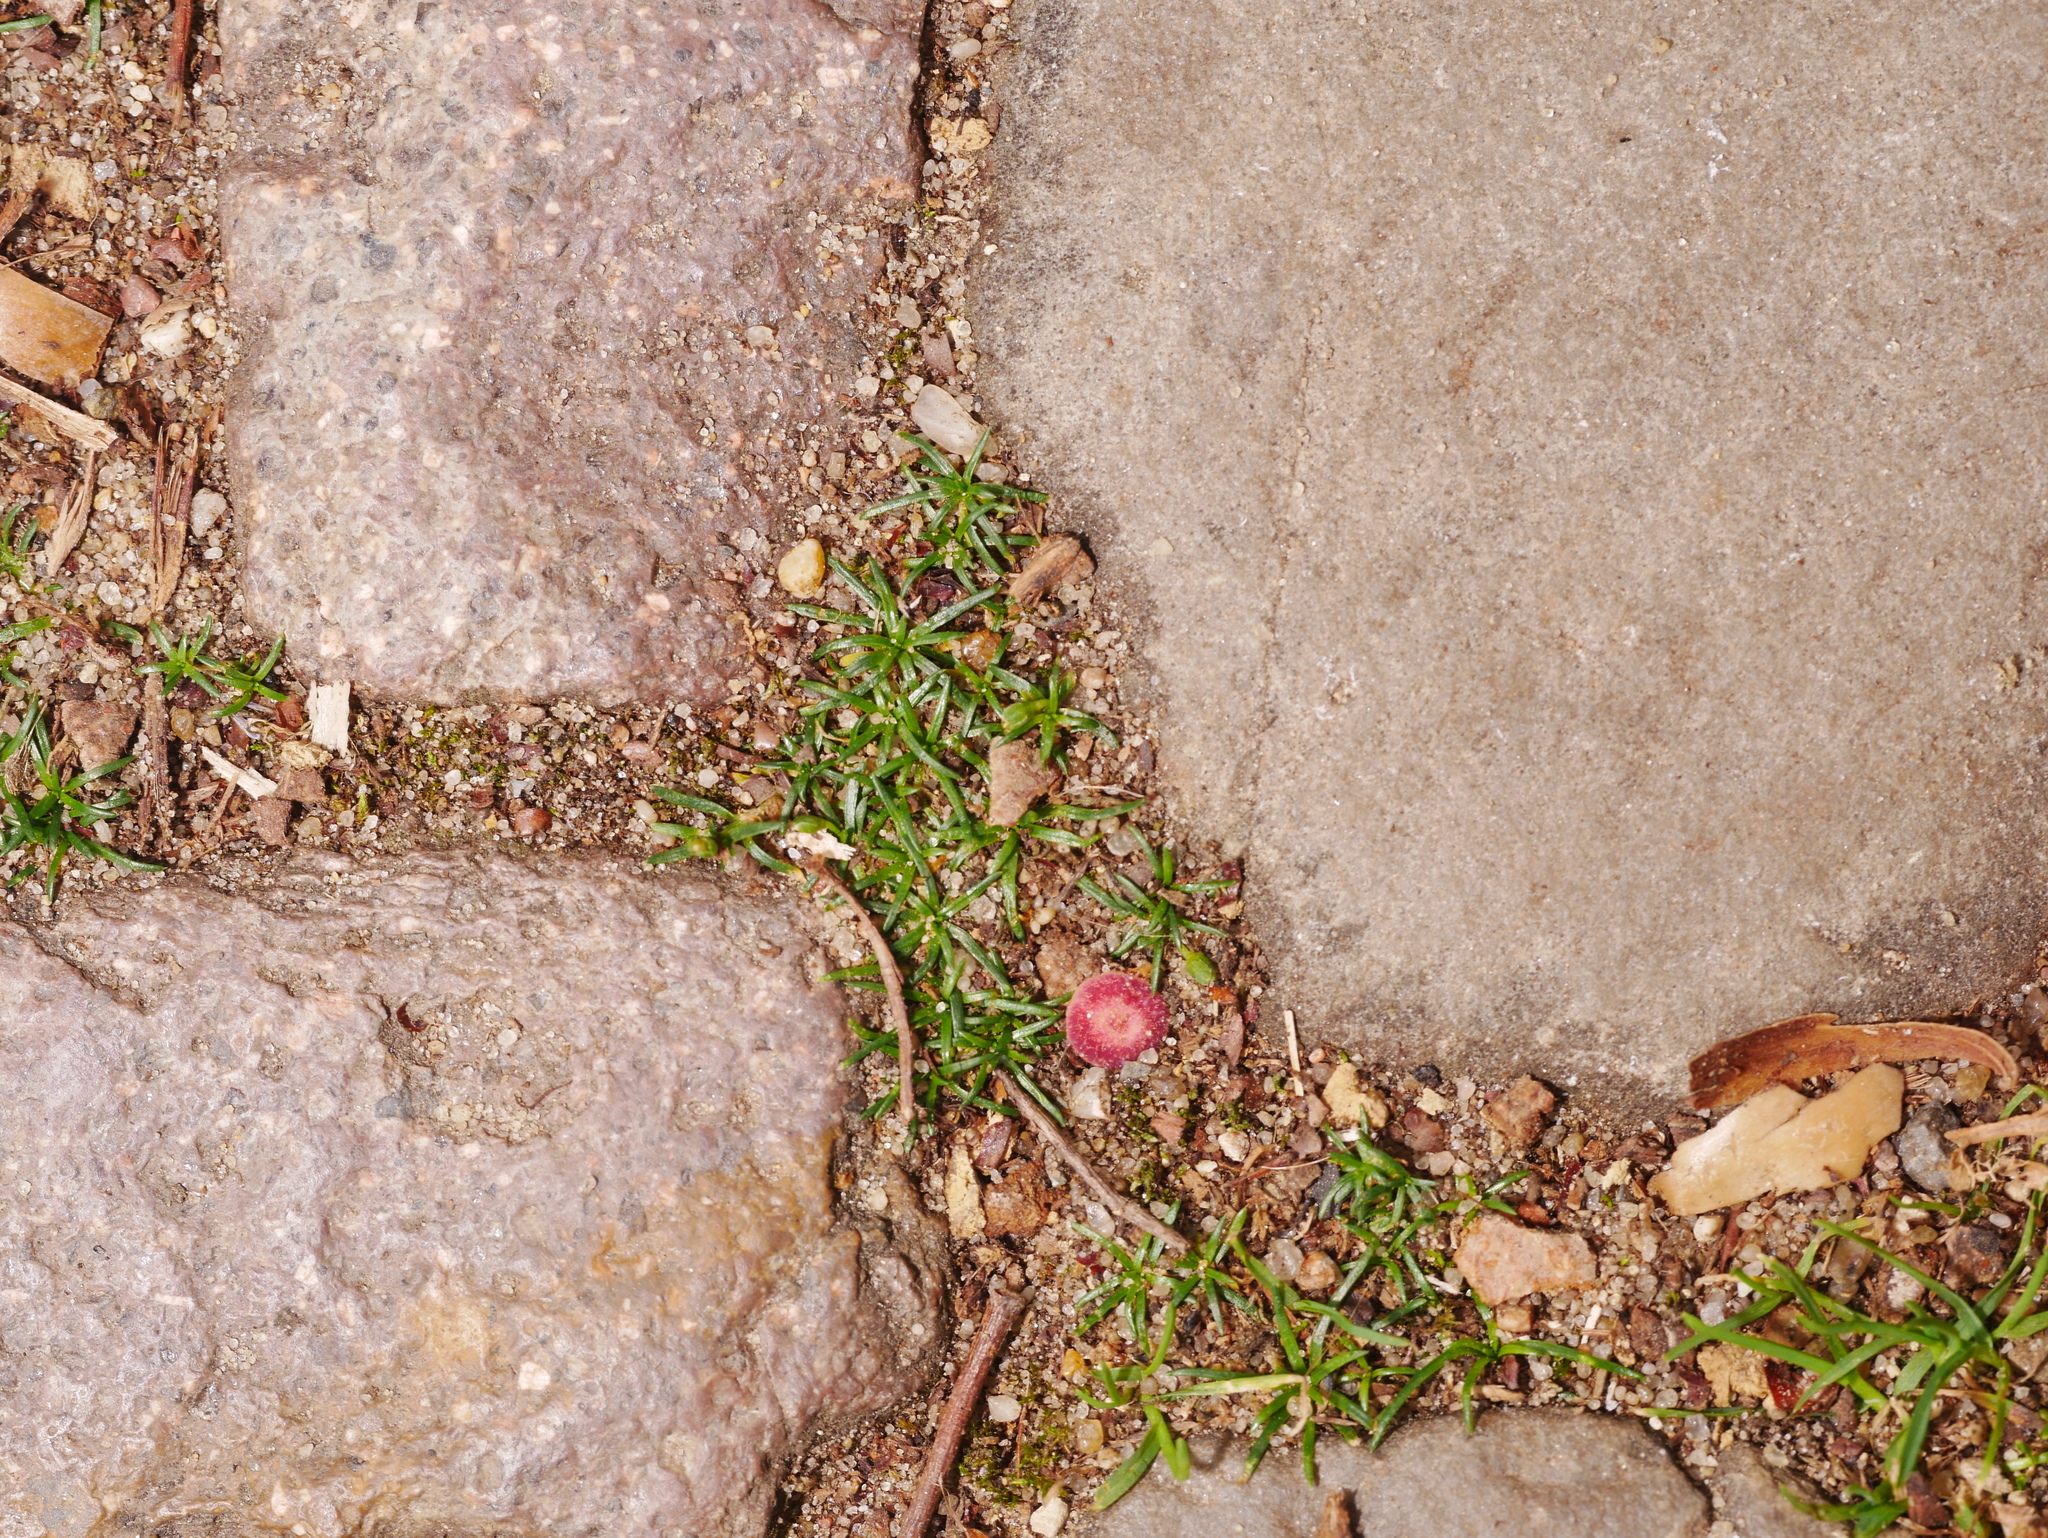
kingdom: Plantae
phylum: Tracheophyta
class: Magnoliopsida
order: Caryophyllales
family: Caryophyllaceae
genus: Sagina
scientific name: Sagina procumbens
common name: Procumbent pearlwort
